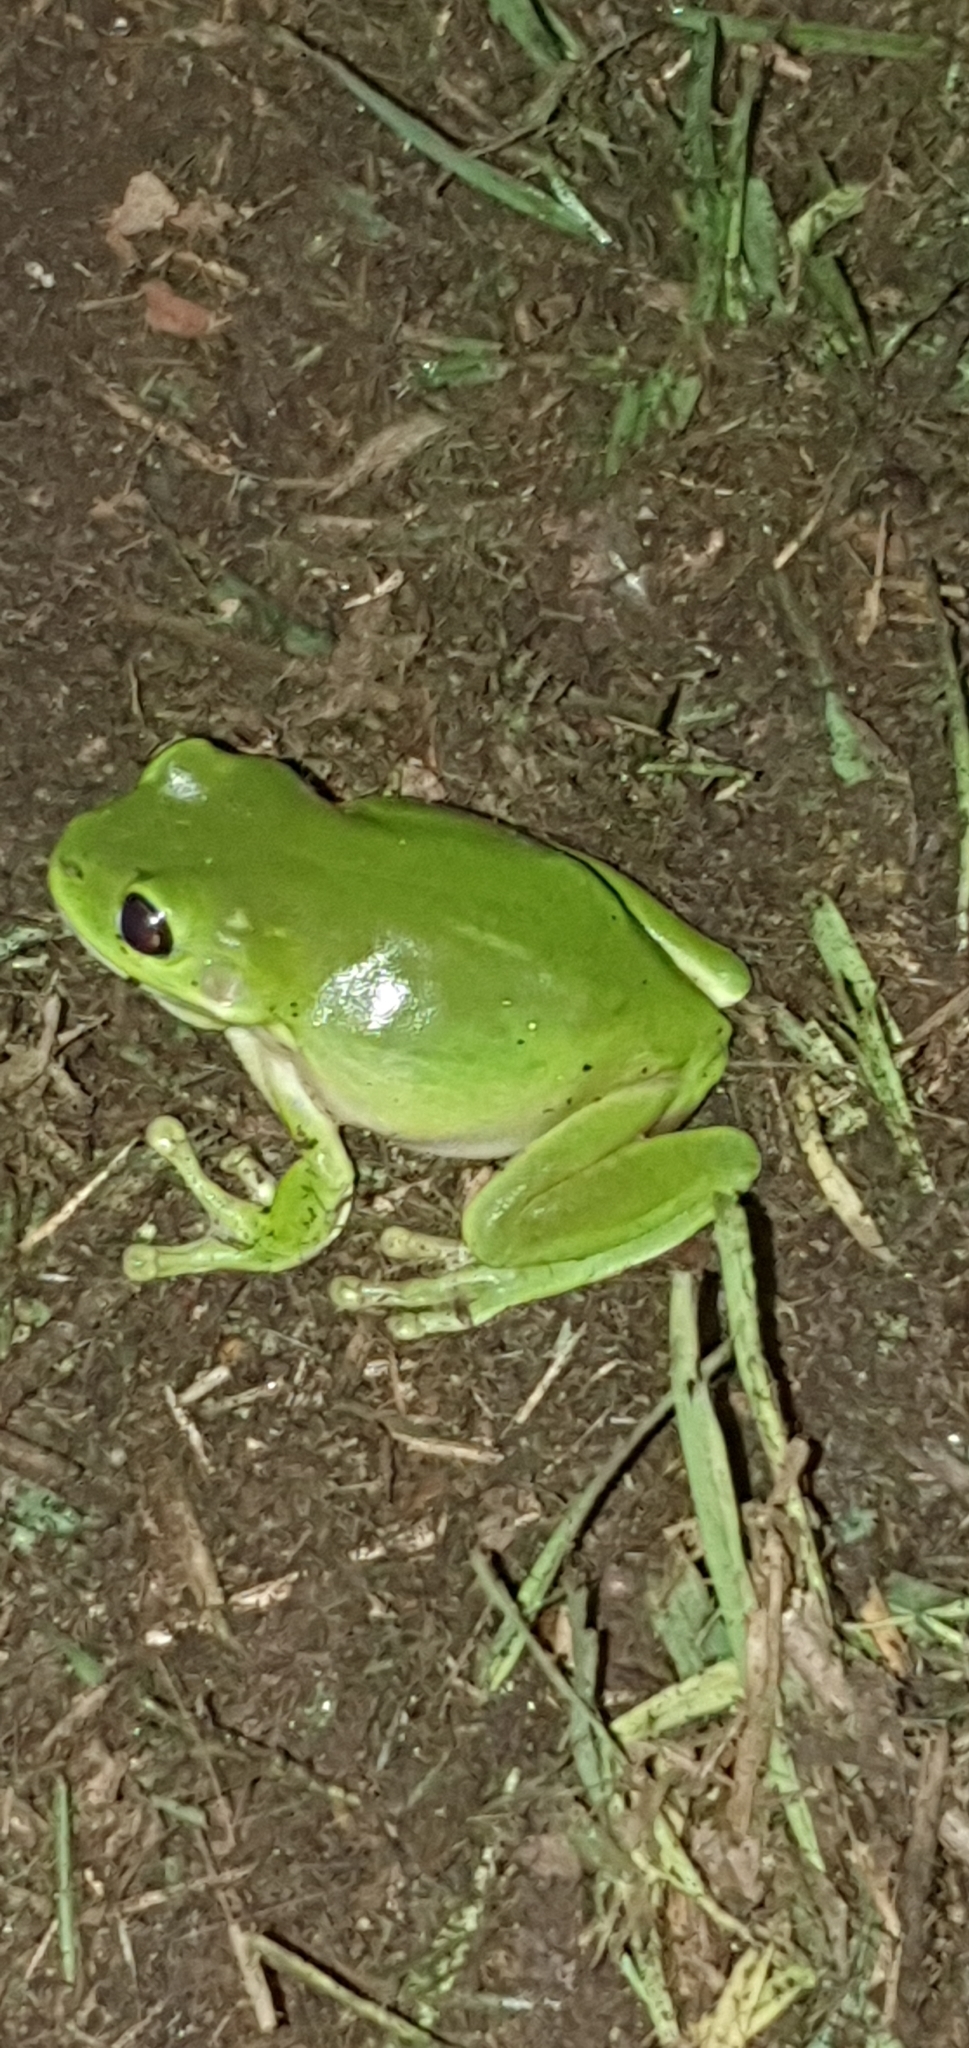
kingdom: Animalia
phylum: Chordata
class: Amphibia
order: Anura
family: Pelodryadidae
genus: Ranoidea
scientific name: Ranoidea caerulea
